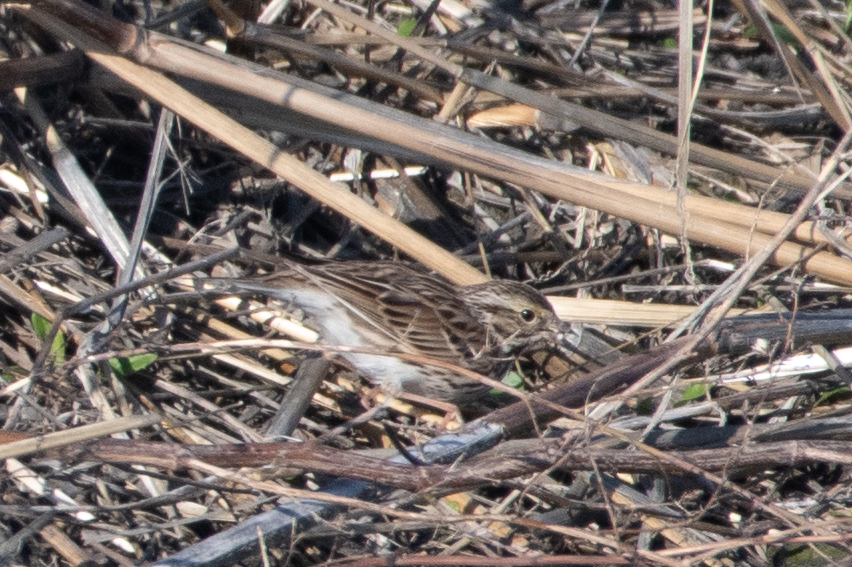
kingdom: Animalia
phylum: Chordata
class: Aves
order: Passeriformes
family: Passerellidae
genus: Passerculus
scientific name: Passerculus sandwichensis
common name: Savannah sparrow
